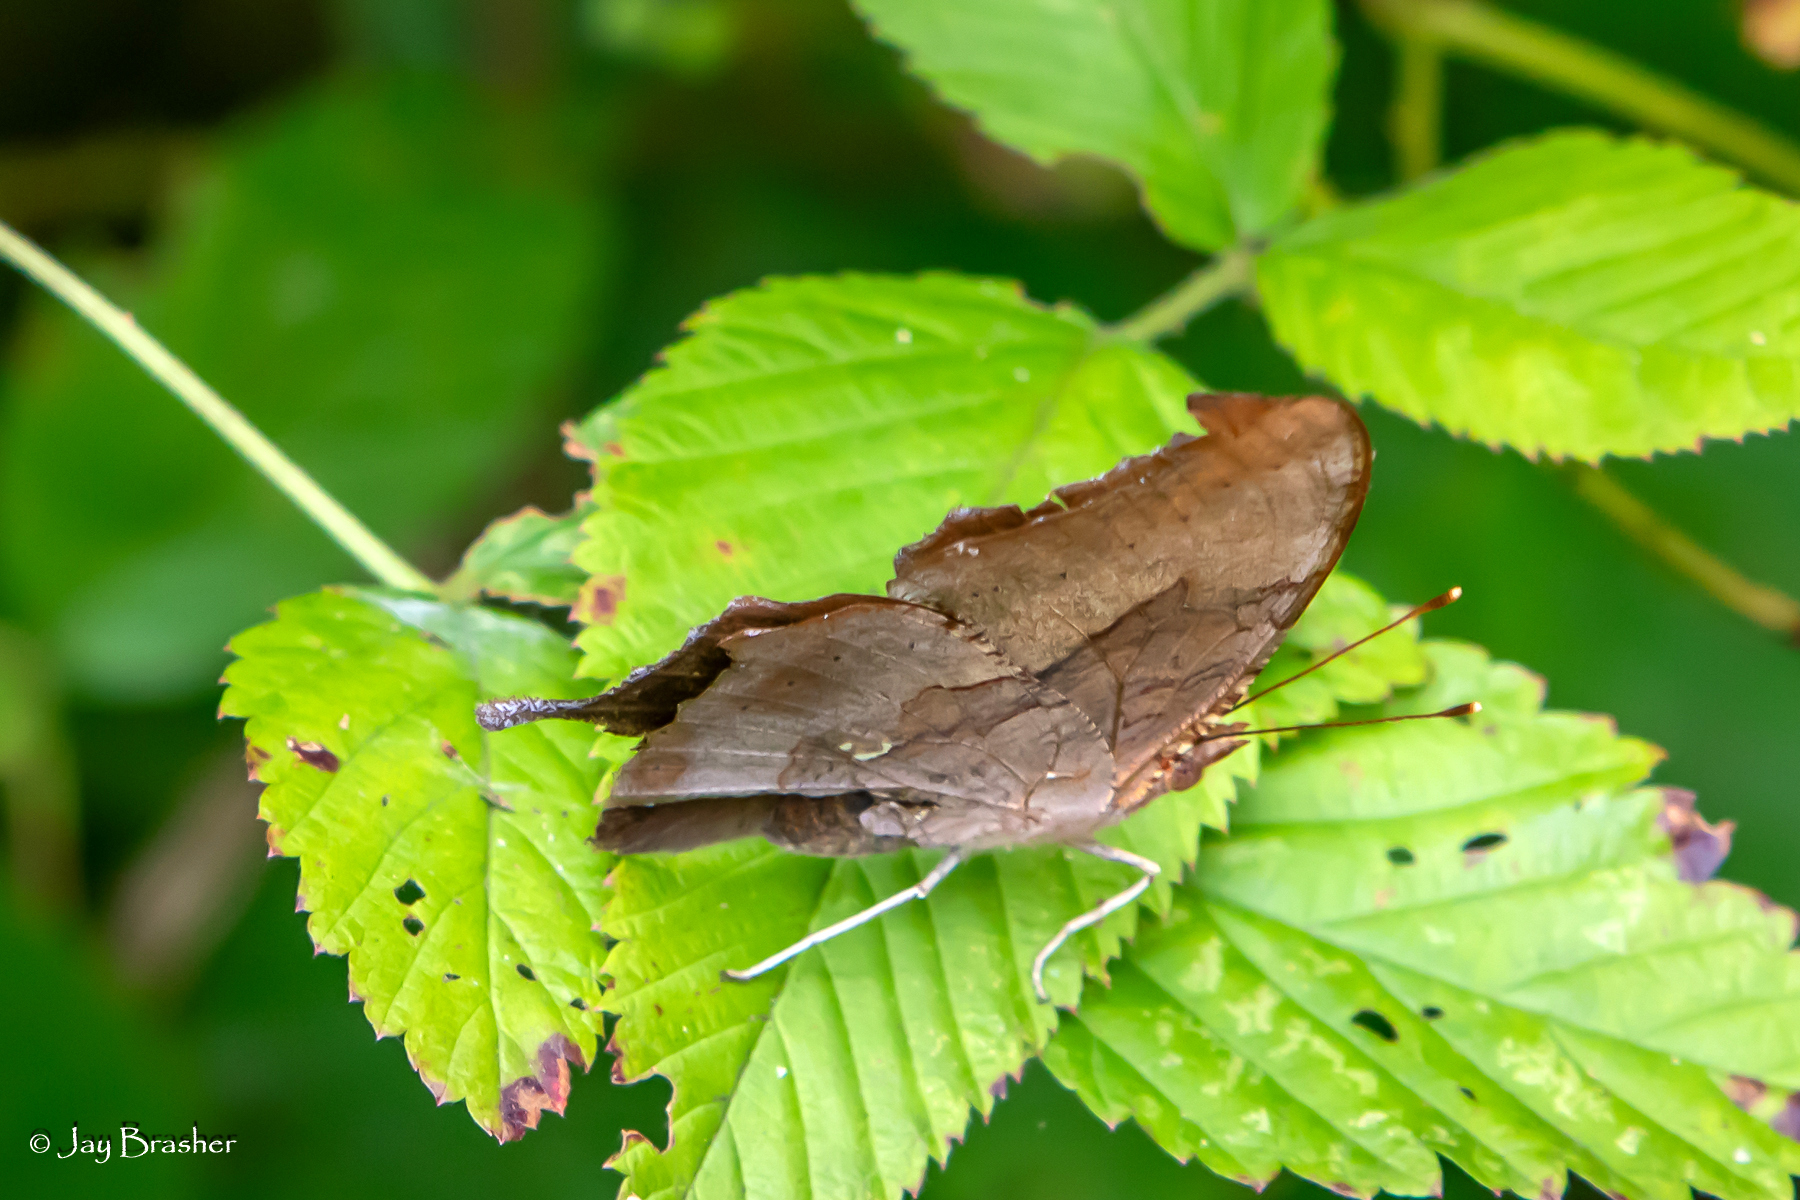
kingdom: Animalia
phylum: Arthropoda
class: Insecta
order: Lepidoptera
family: Nymphalidae
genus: Polygonia
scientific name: Polygonia interrogationis
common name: Question mark
